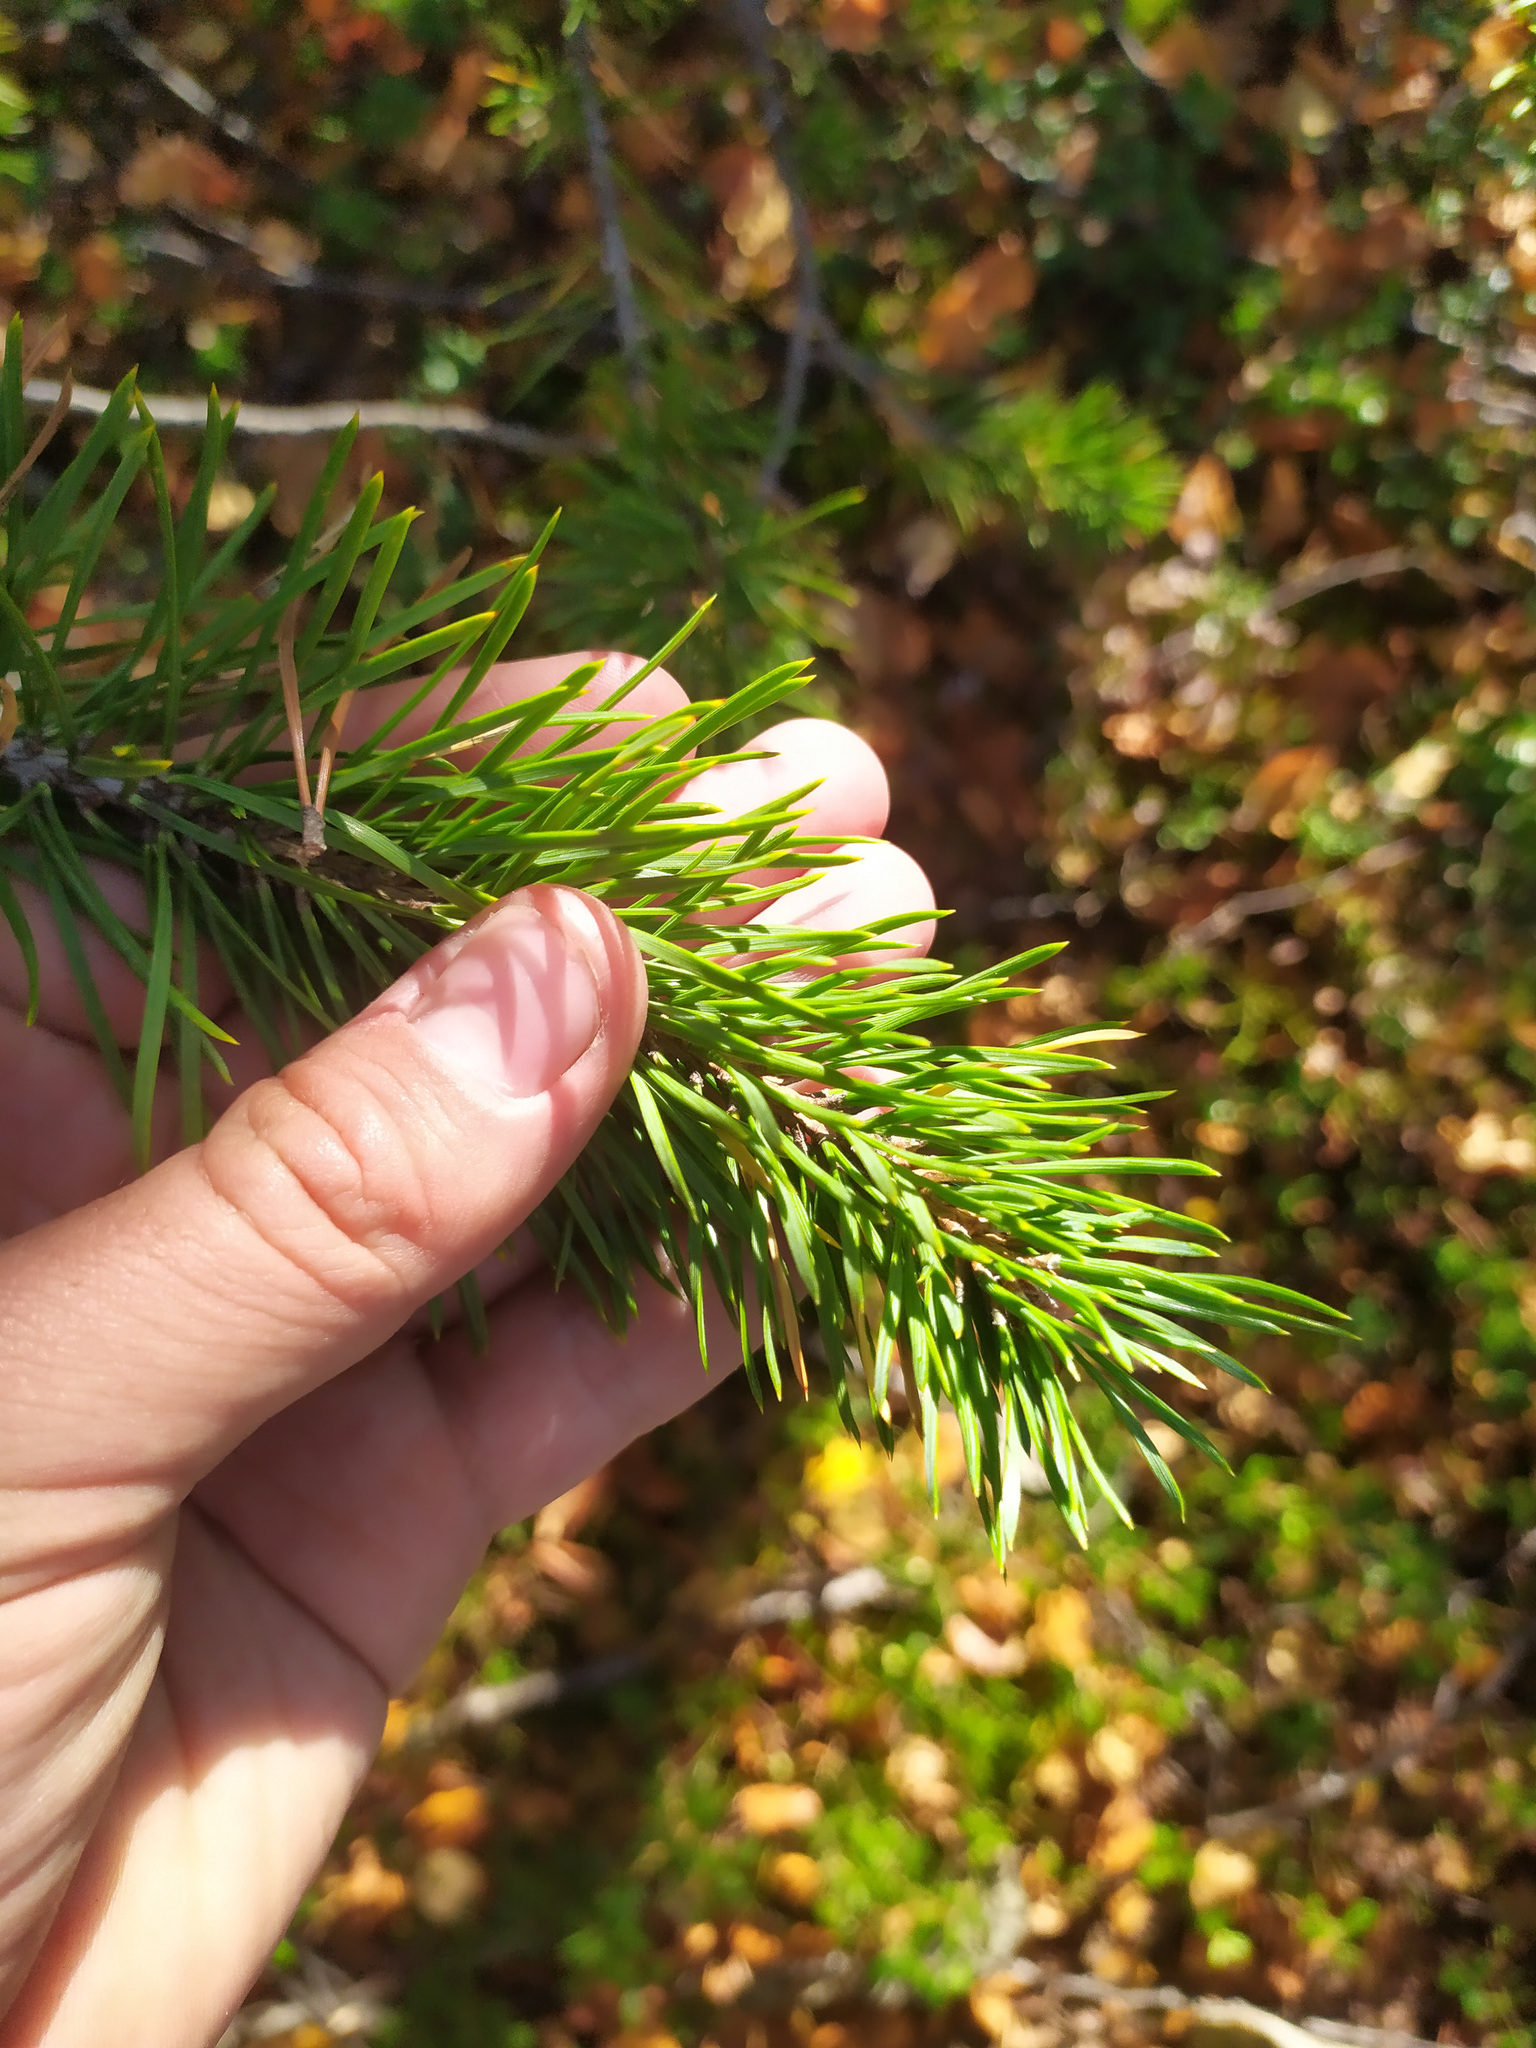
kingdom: Plantae
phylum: Tracheophyta
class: Pinopsida
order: Pinales
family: Pinaceae
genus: Pinus
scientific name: Pinus sylvestris
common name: Scots pine
